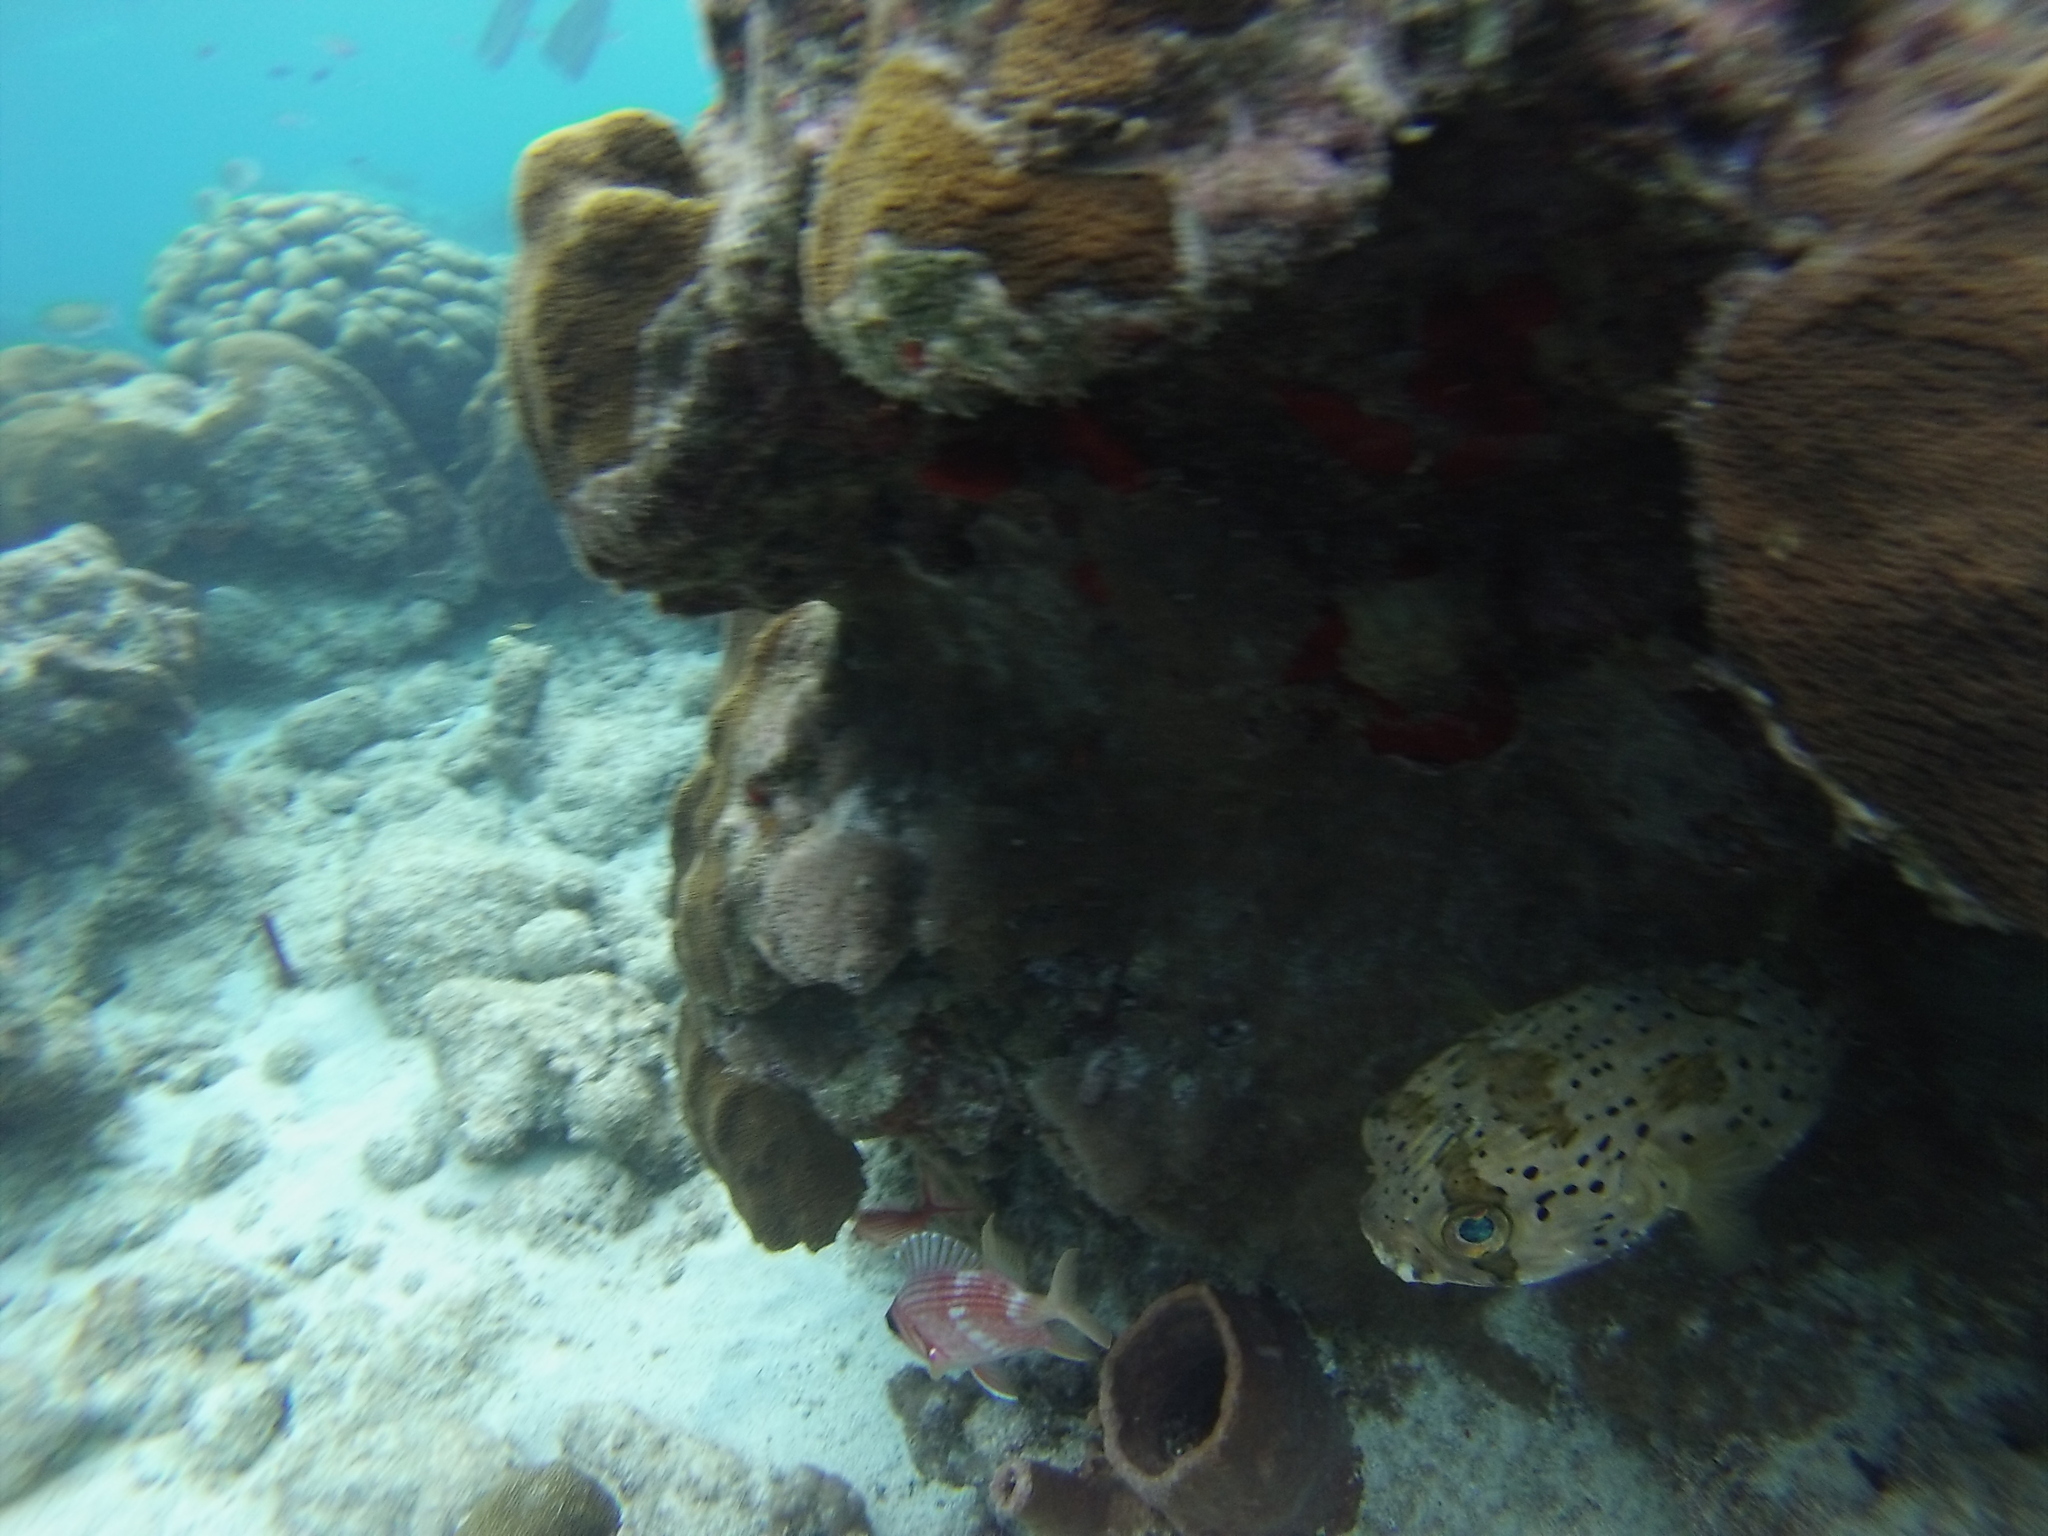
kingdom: Animalia
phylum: Chordata
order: Tetraodontiformes
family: Diodontidae
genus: Diodon
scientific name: Diodon holocanthus
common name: Balloonfish
